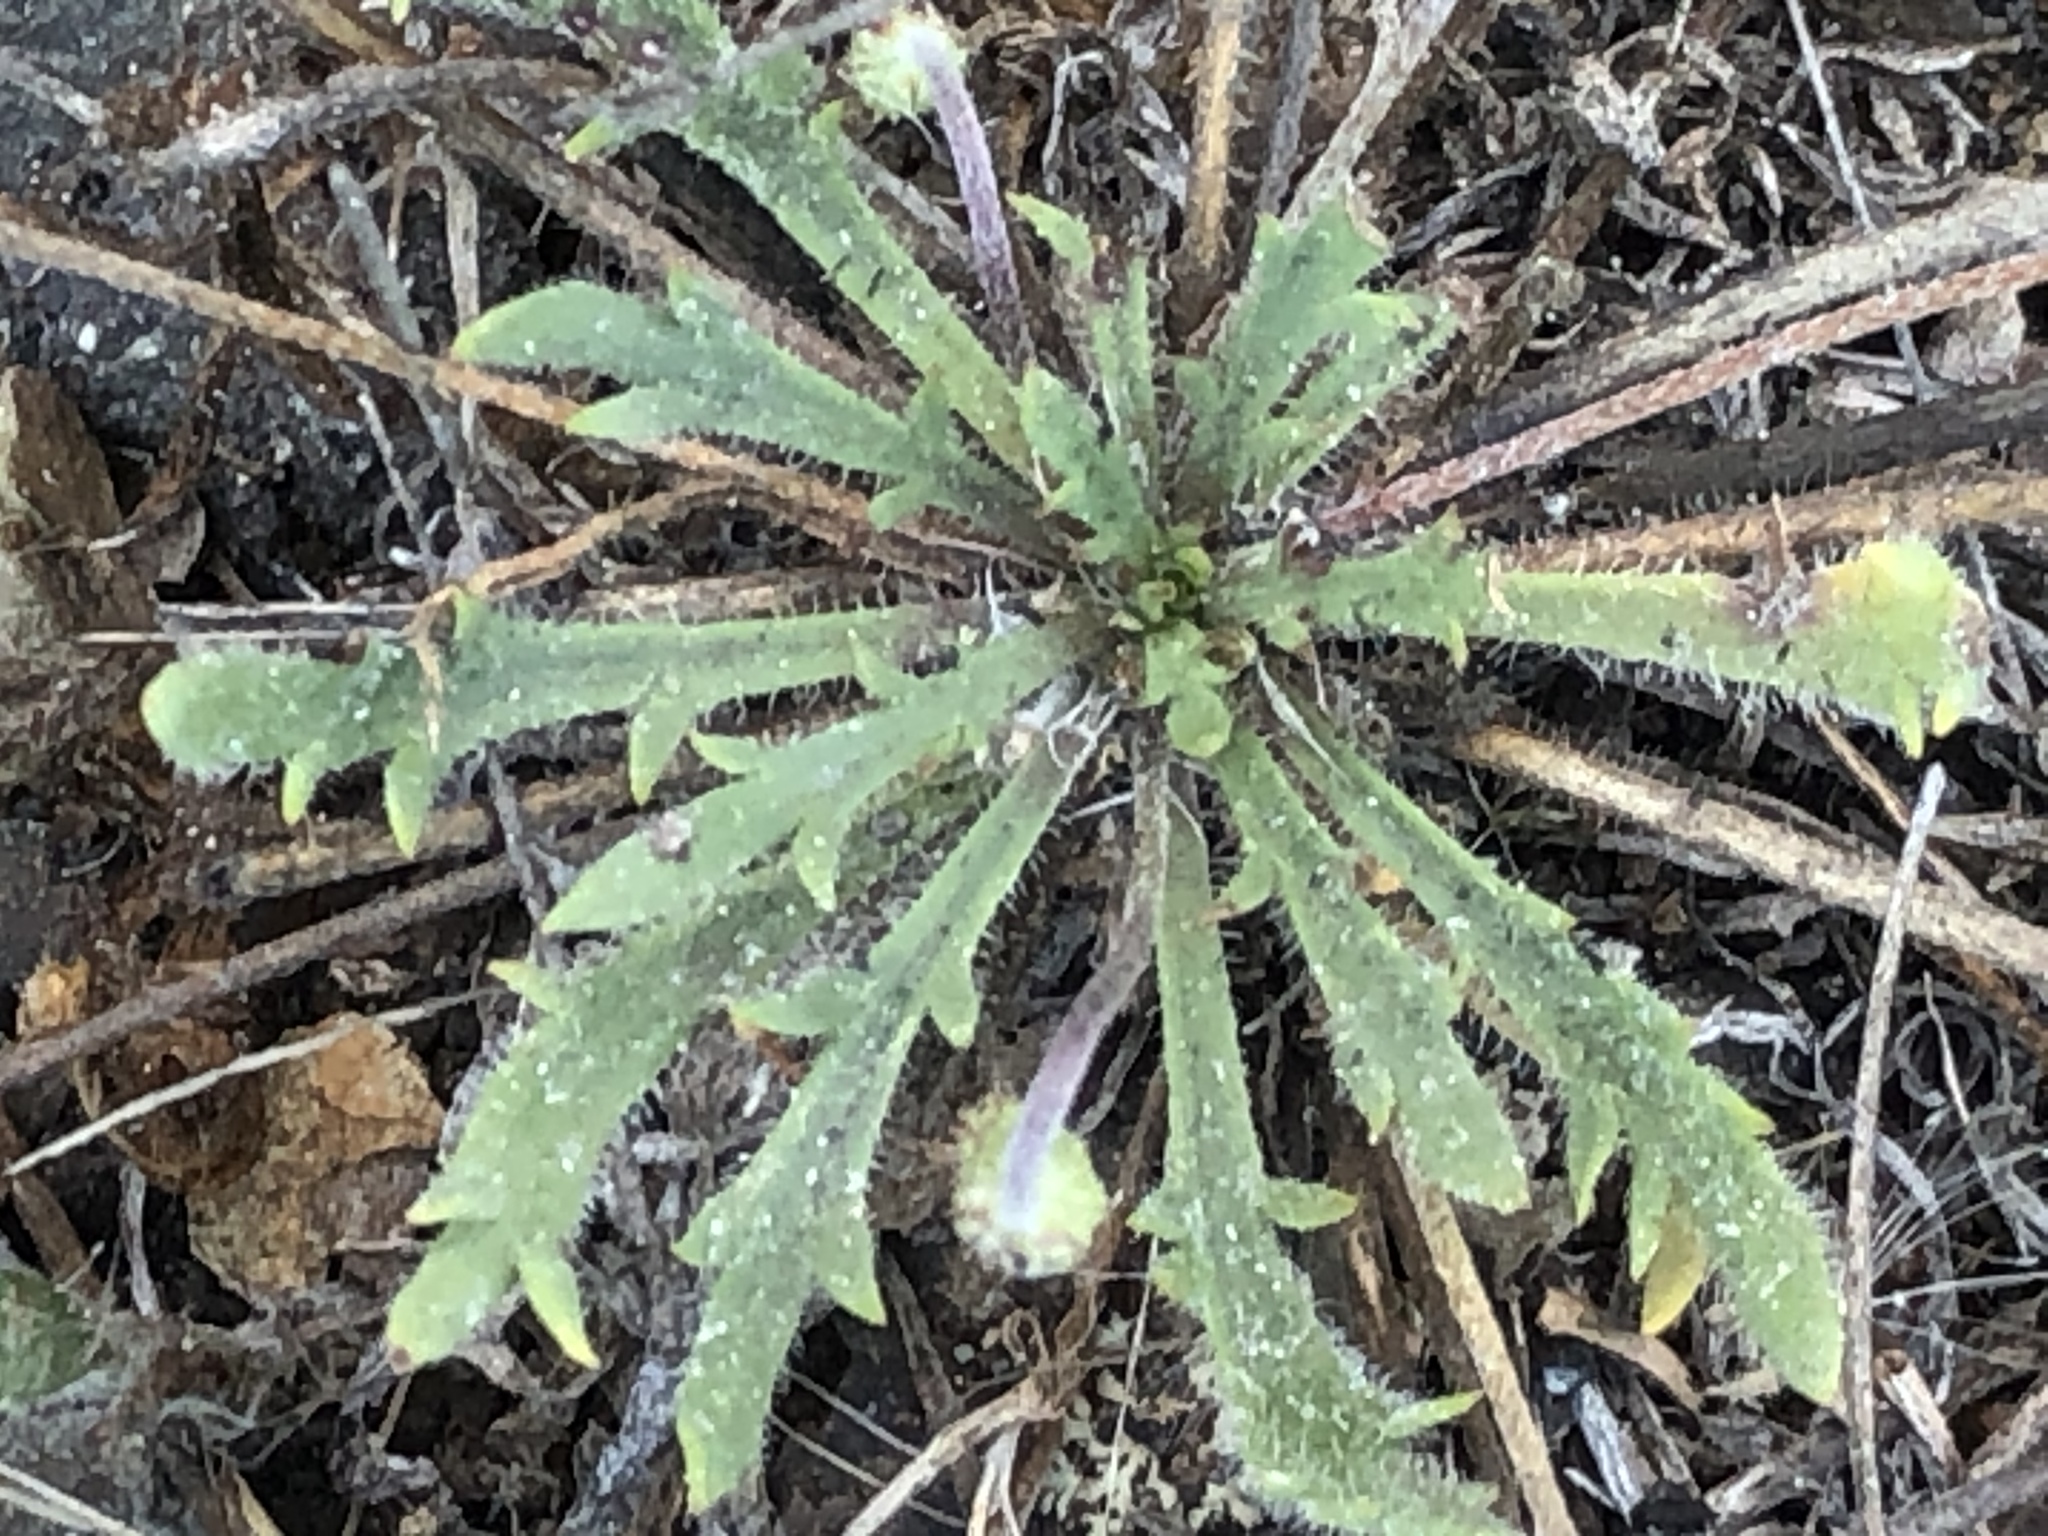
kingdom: Plantae
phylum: Tracheophyta
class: Magnoliopsida
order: Lamiales
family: Plantaginaceae
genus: Plantago
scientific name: Plantago coronopus
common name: Buck's-horn plantain
